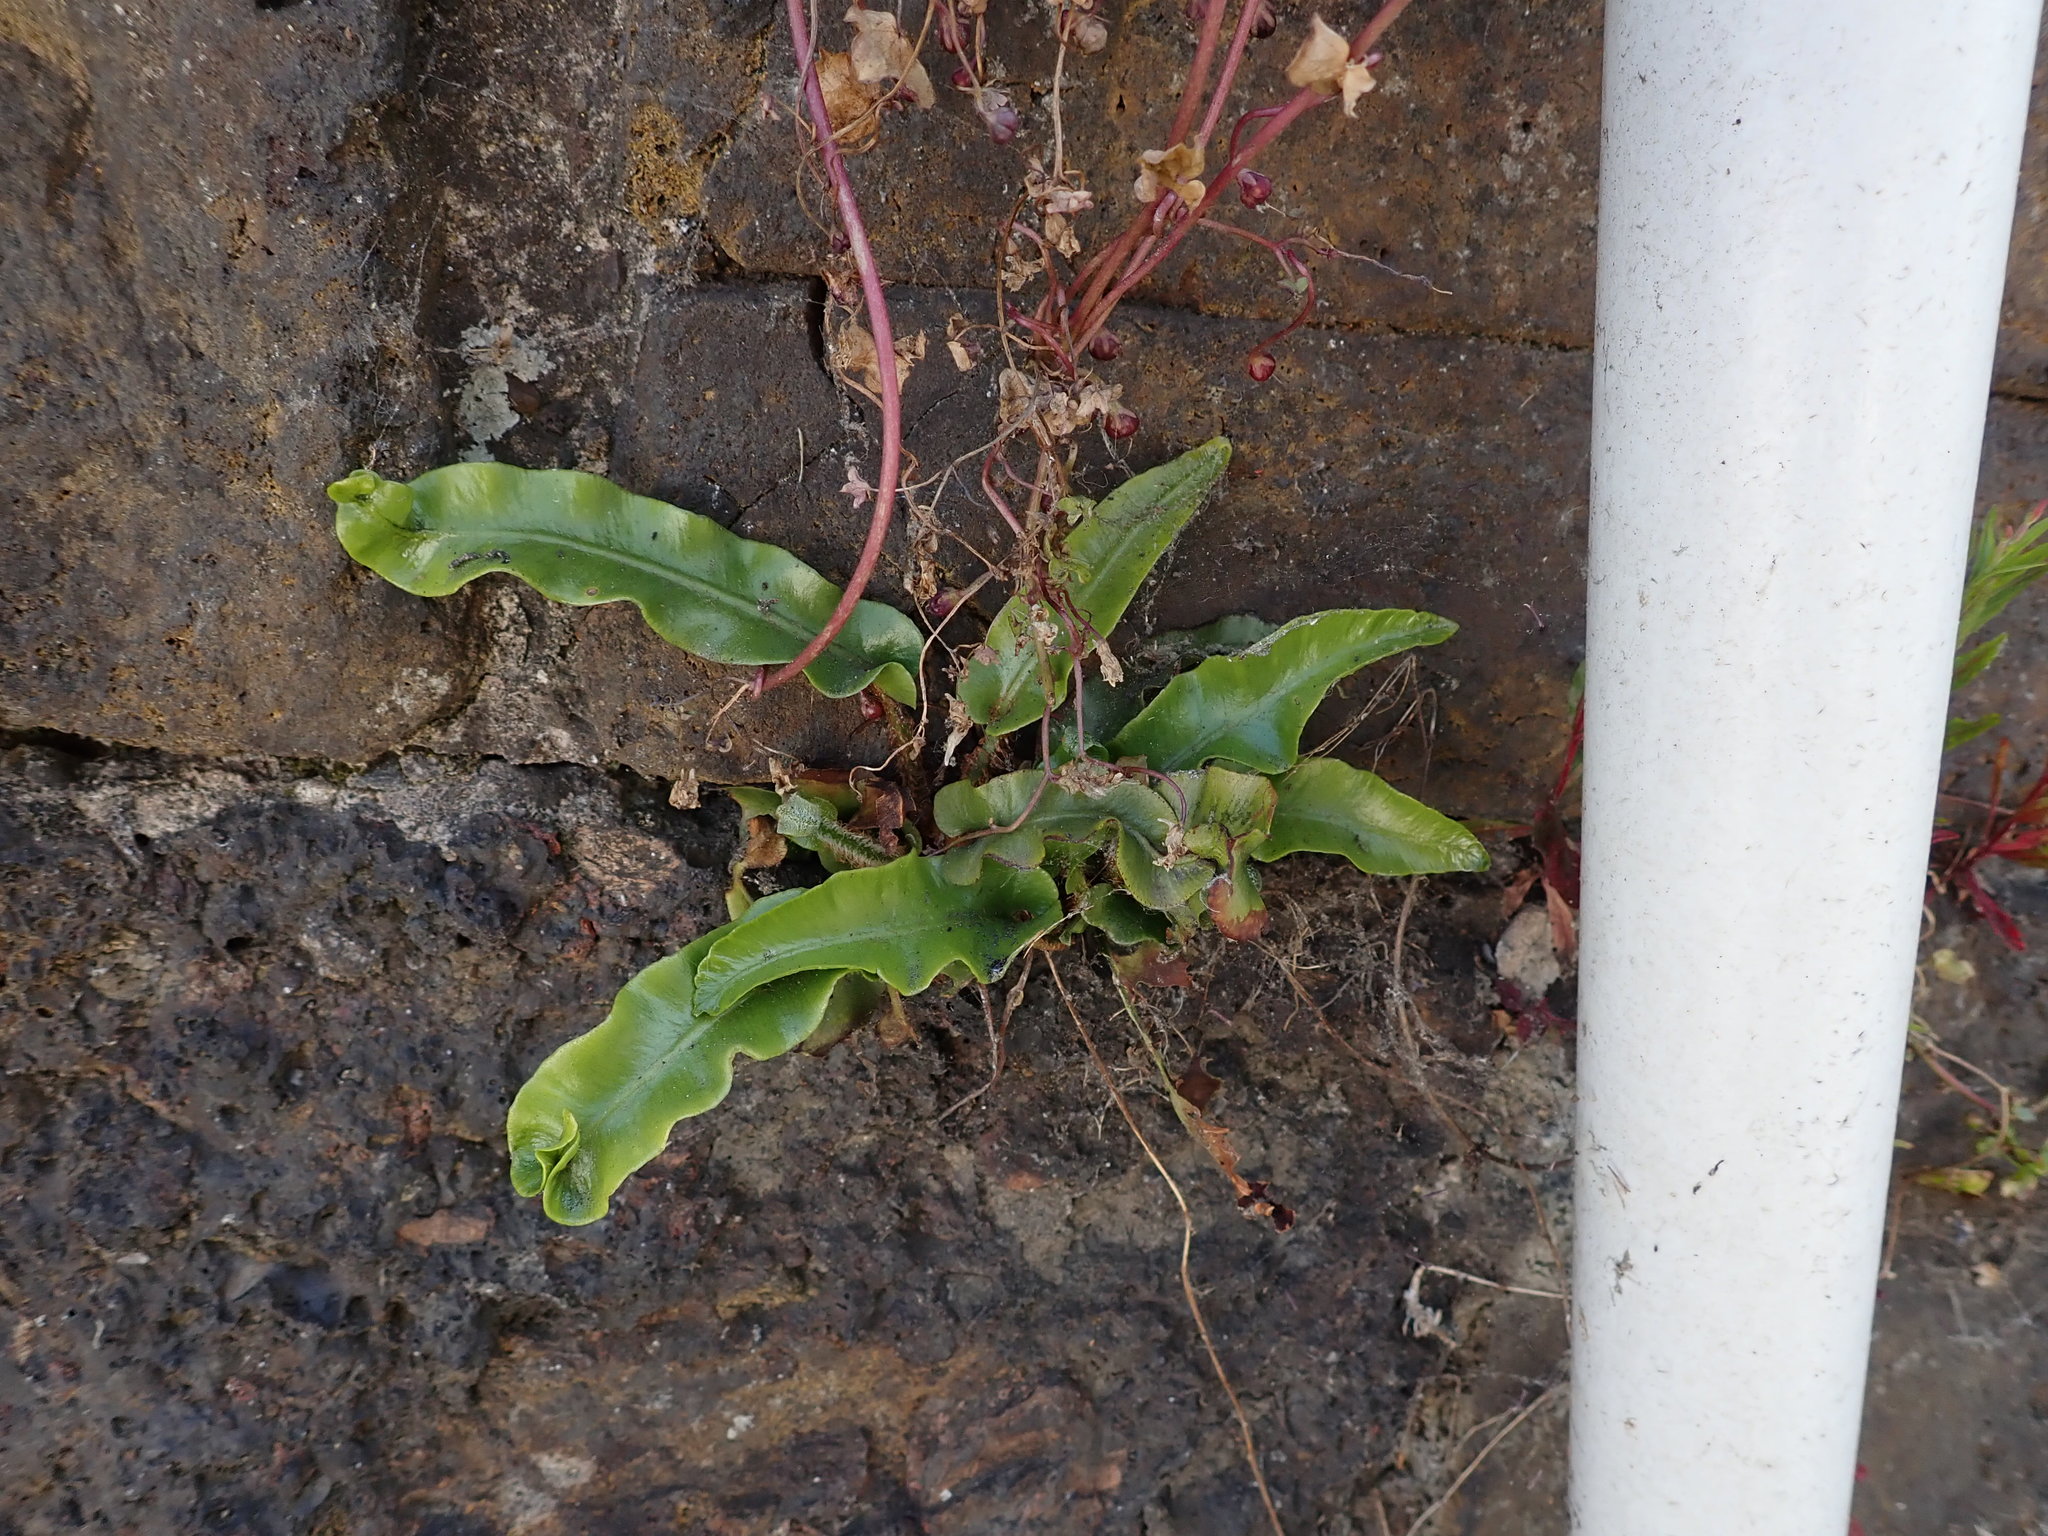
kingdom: Plantae
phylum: Tracheophyta
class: Polypodiopsida
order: Polypodiales
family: Aspleniaceae
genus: Asplenium
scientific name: Asplenium scolopendrium
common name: Hart's-tongue fern
